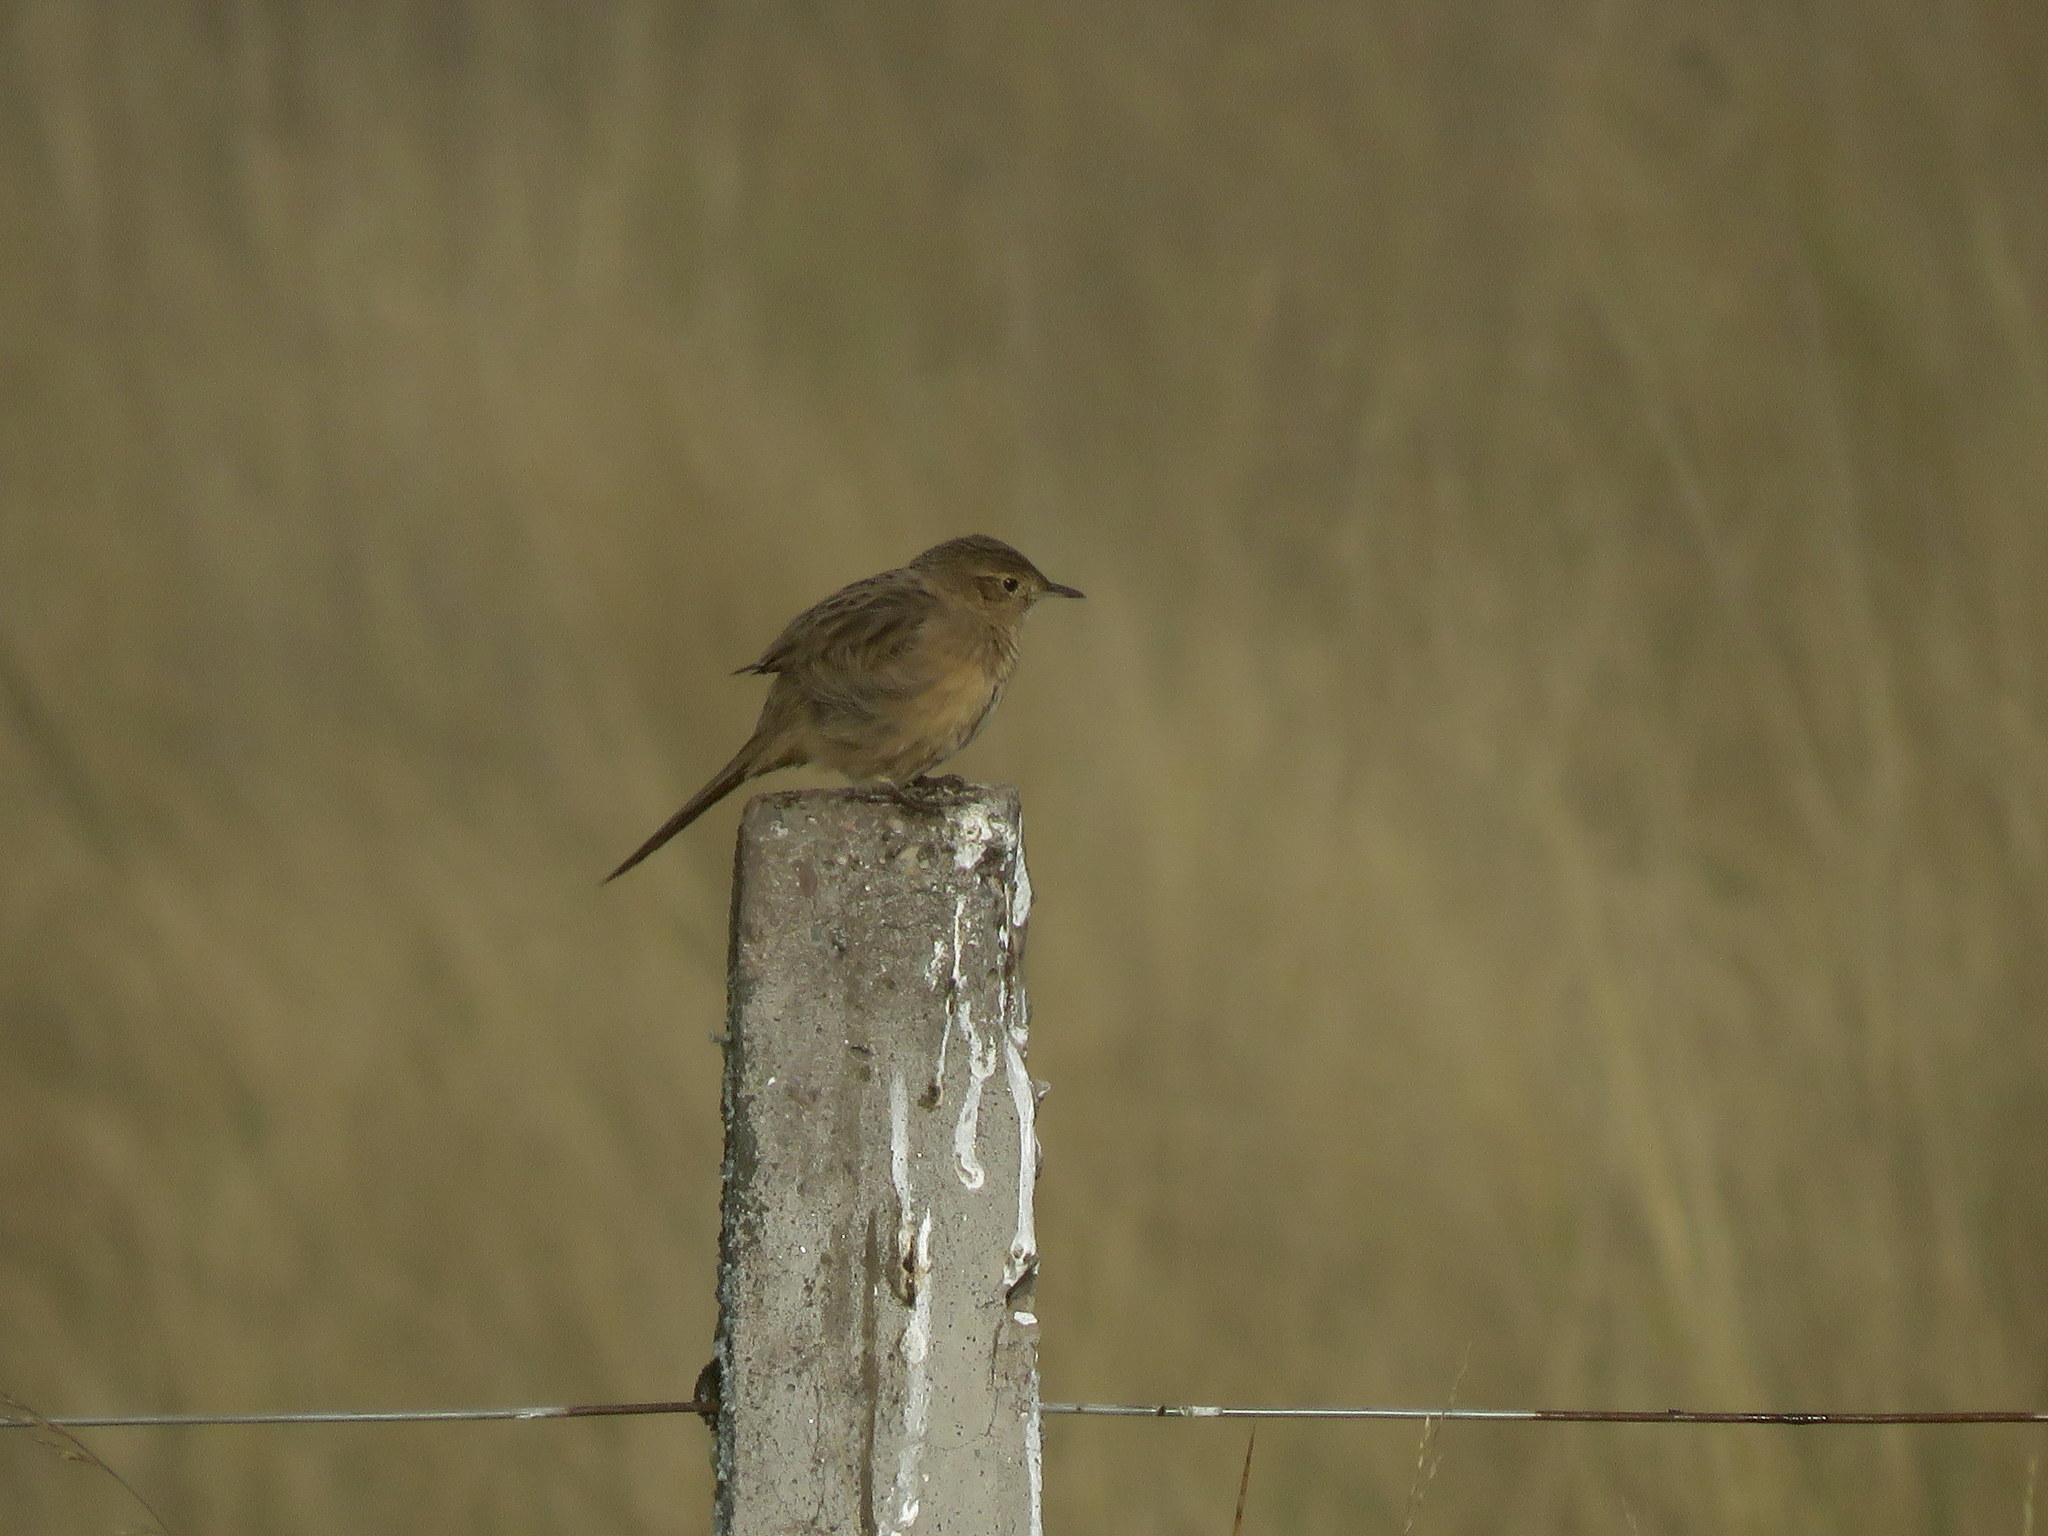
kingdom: Animalia
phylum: Chordata
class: Aves
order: Passeriformes
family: Furnariidae
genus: Asthenes
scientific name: Asthenes wyatti
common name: Streak-backed canastero
